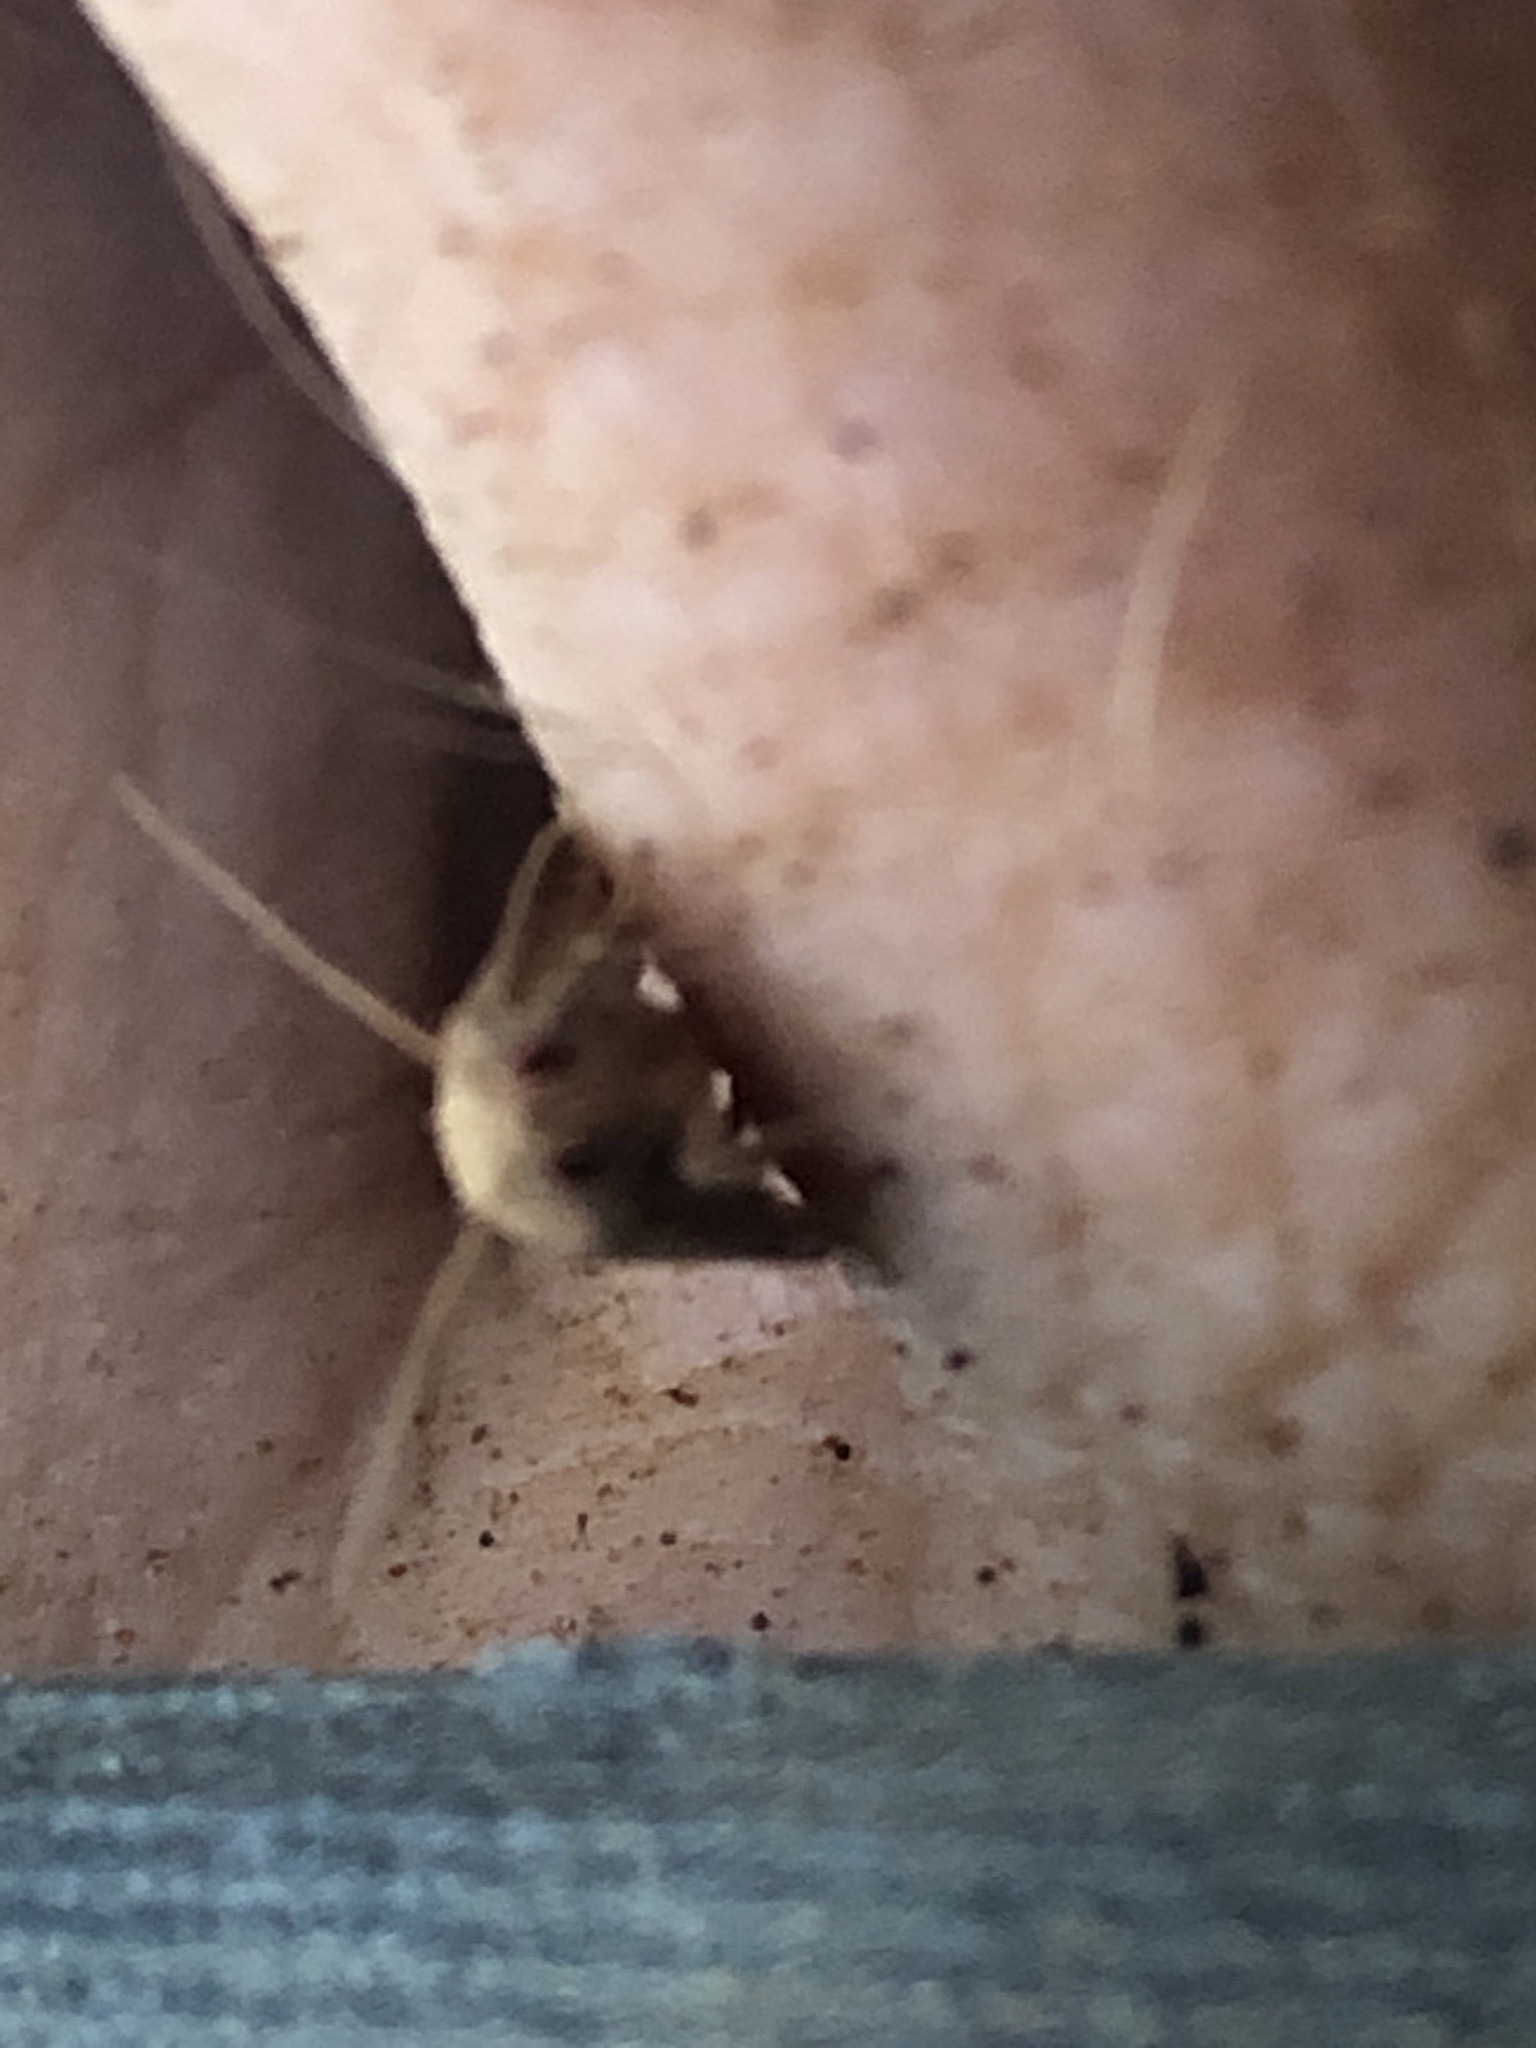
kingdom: Animalia
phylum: Arthropoda
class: Insecta
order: Lepidoptera
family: Tortricidae
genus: Ulodemis
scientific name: Ulodemis trigrapha
